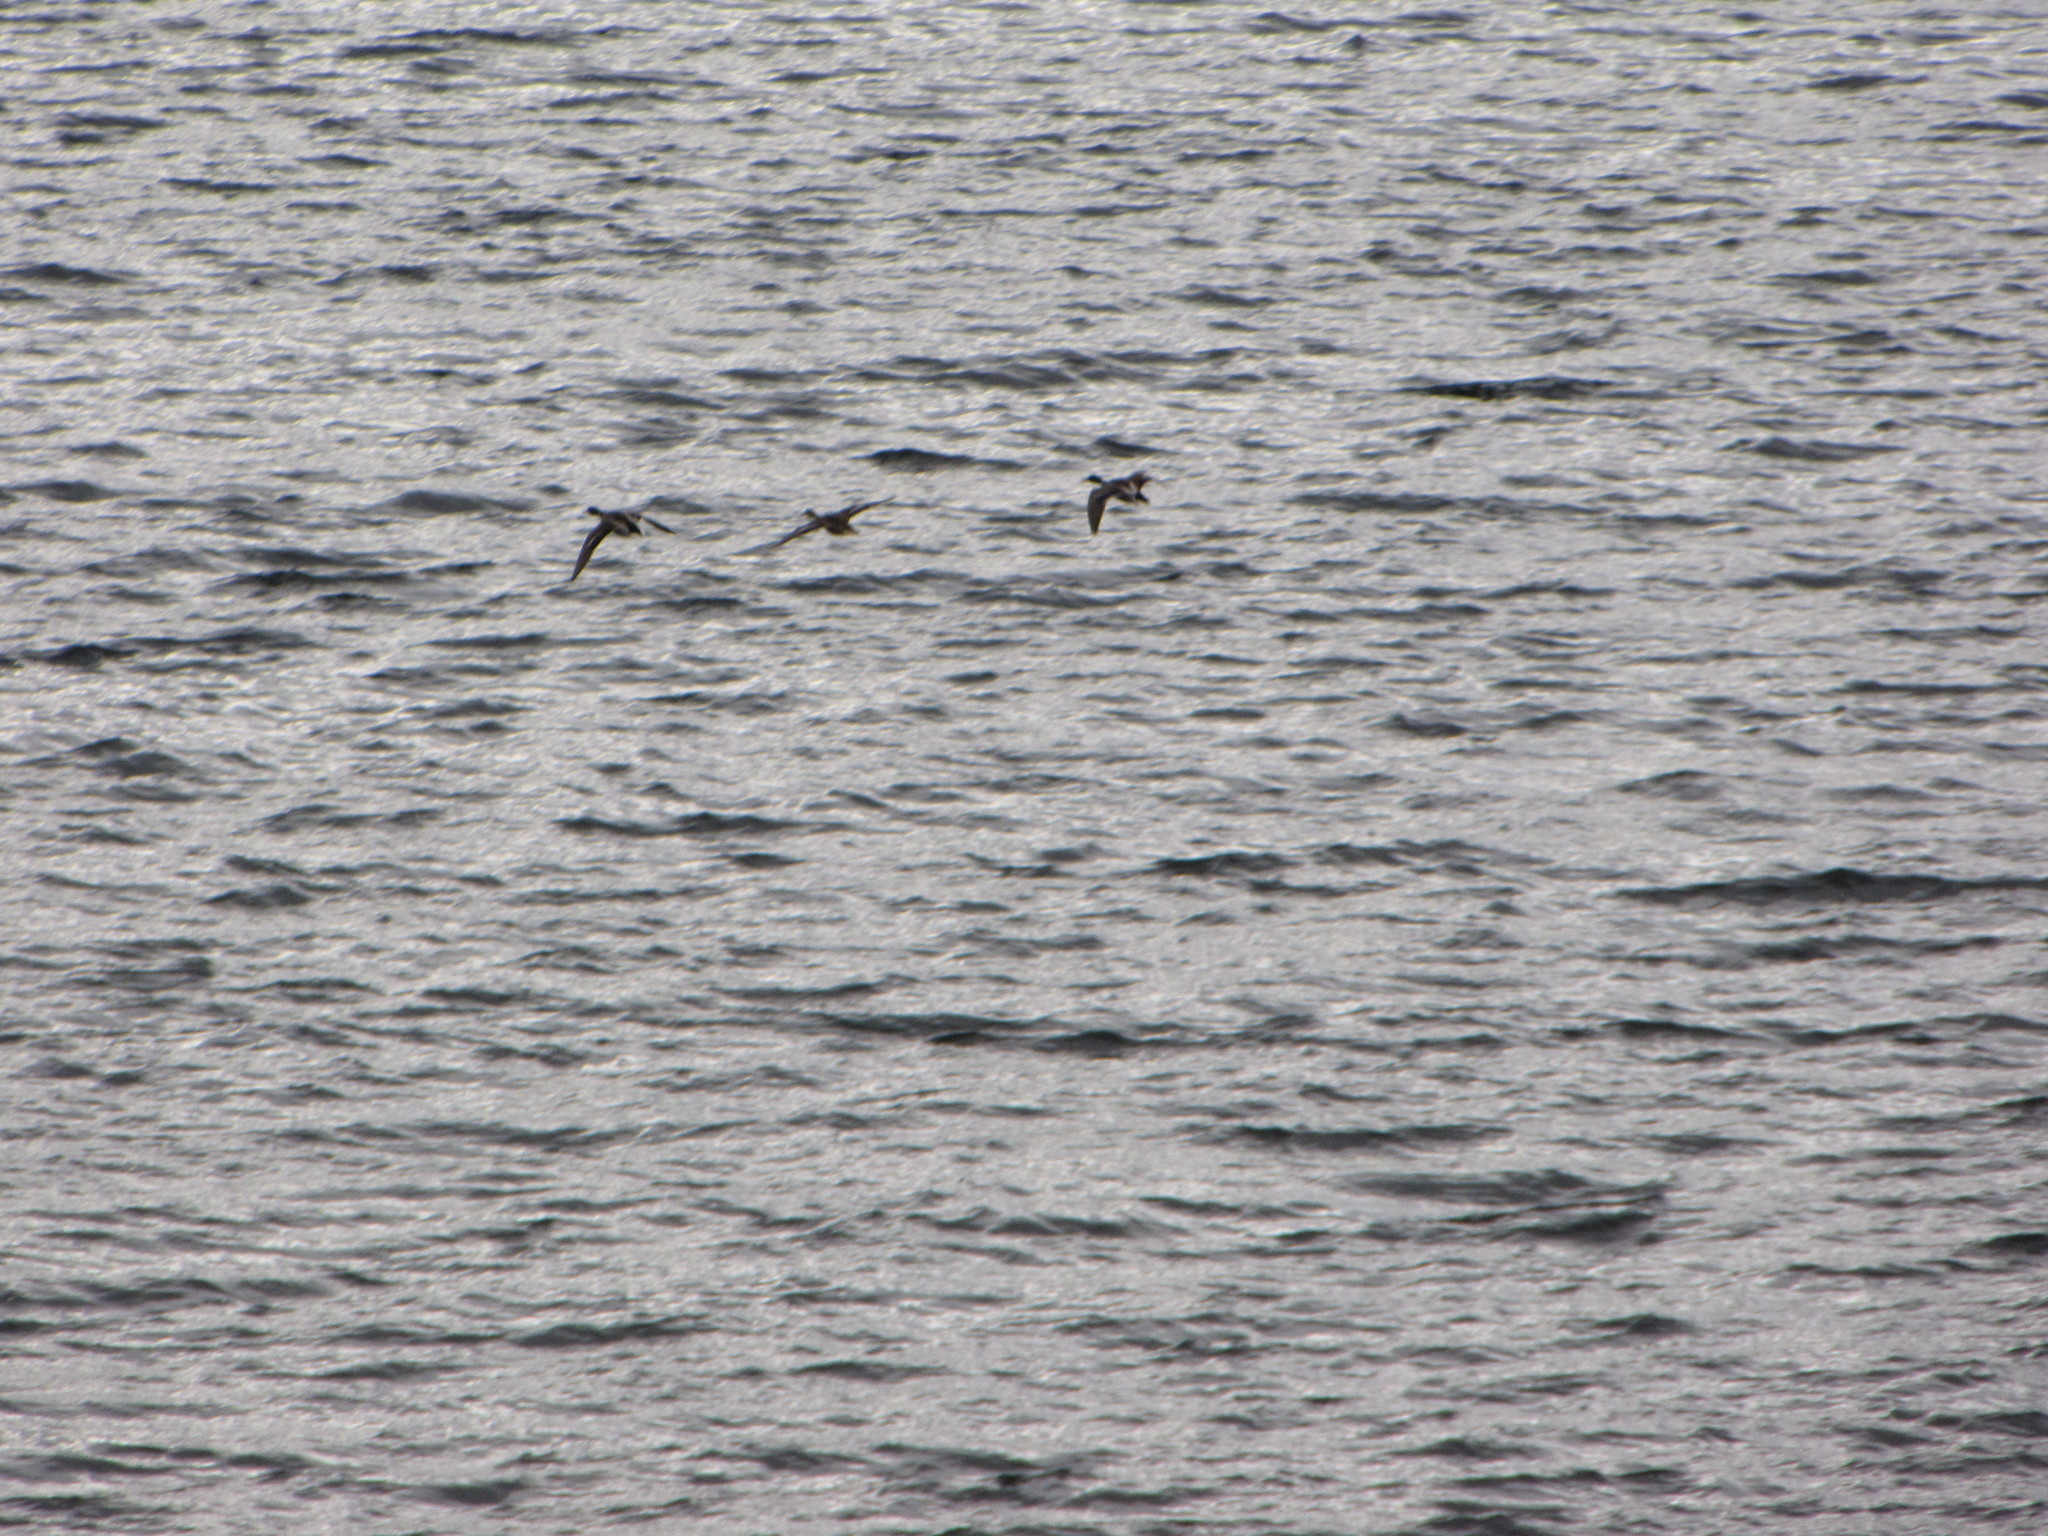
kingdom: Animalia
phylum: Chordata
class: Aves
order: Anseriformes
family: Anatidae
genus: Anas
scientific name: Anas platyrhynchos
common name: Mallard
